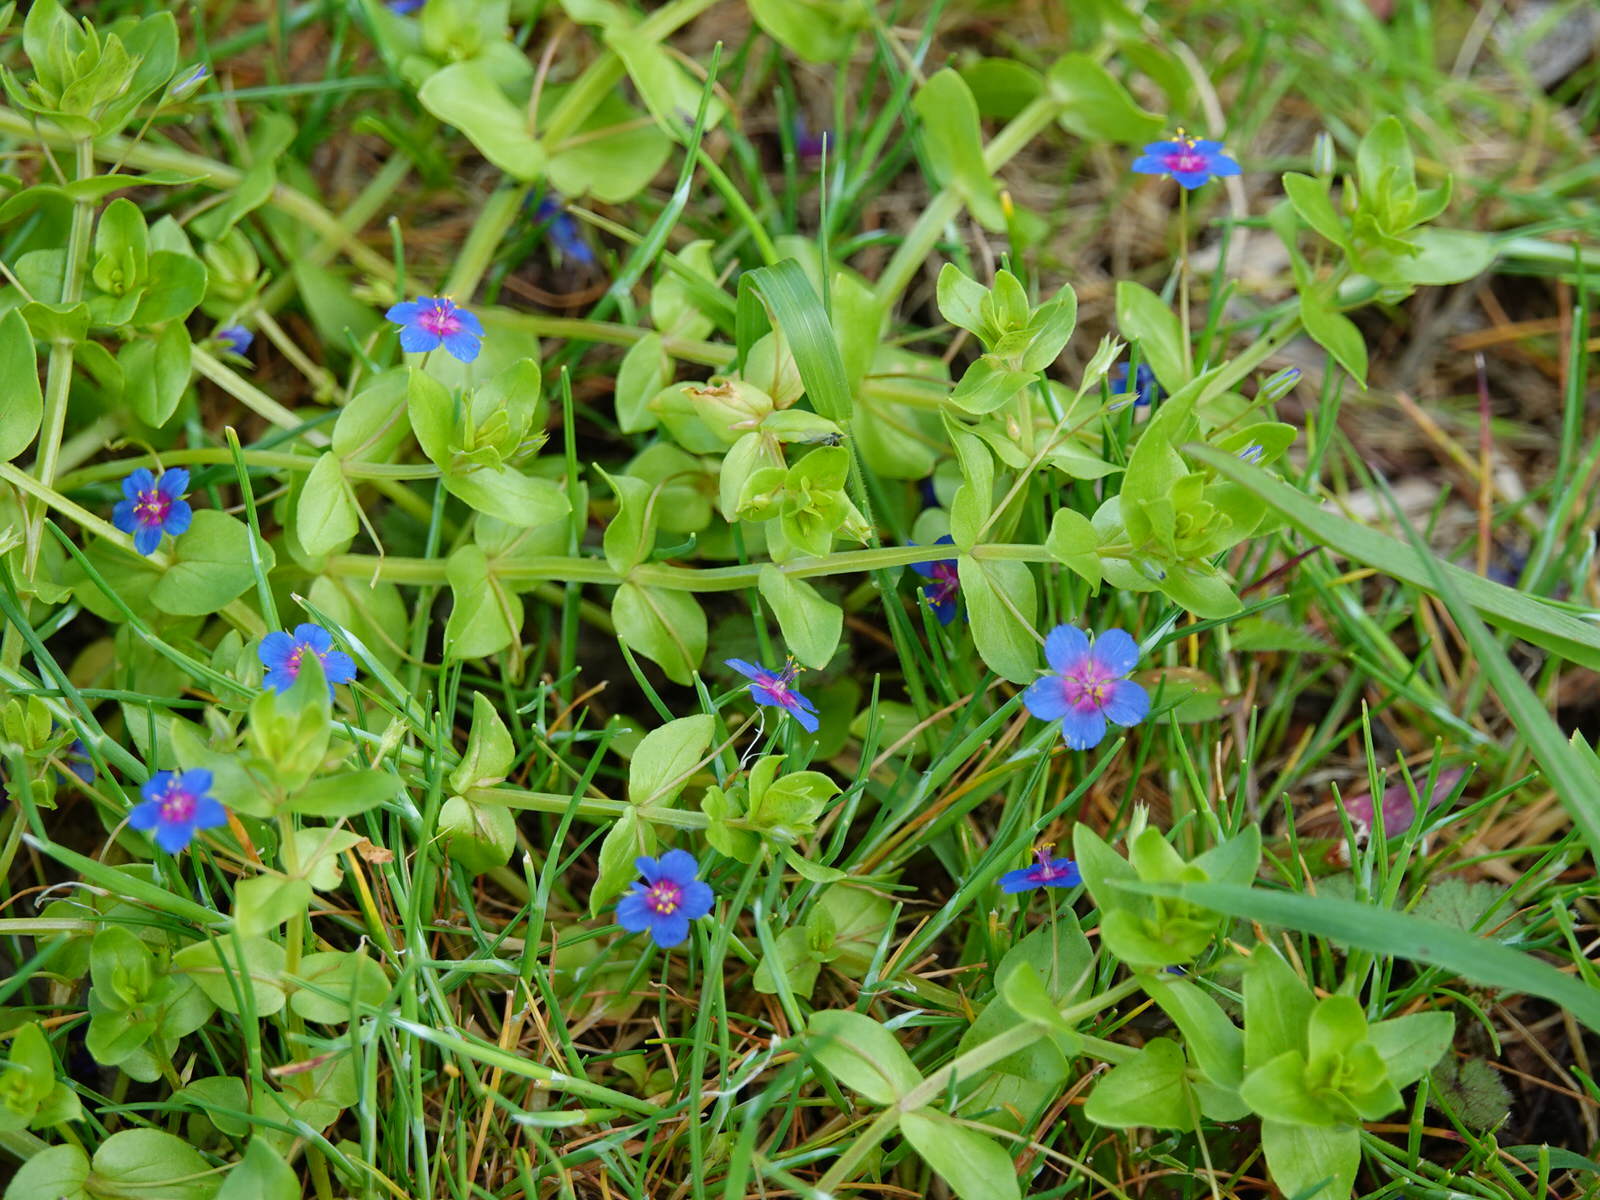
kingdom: Plantae
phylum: Tracheophyta
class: Magnoliopsida
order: Ericales
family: Primulaceae
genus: Lysimachia
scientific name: Lysimachia arvensis
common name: Scarlet pimpernel
